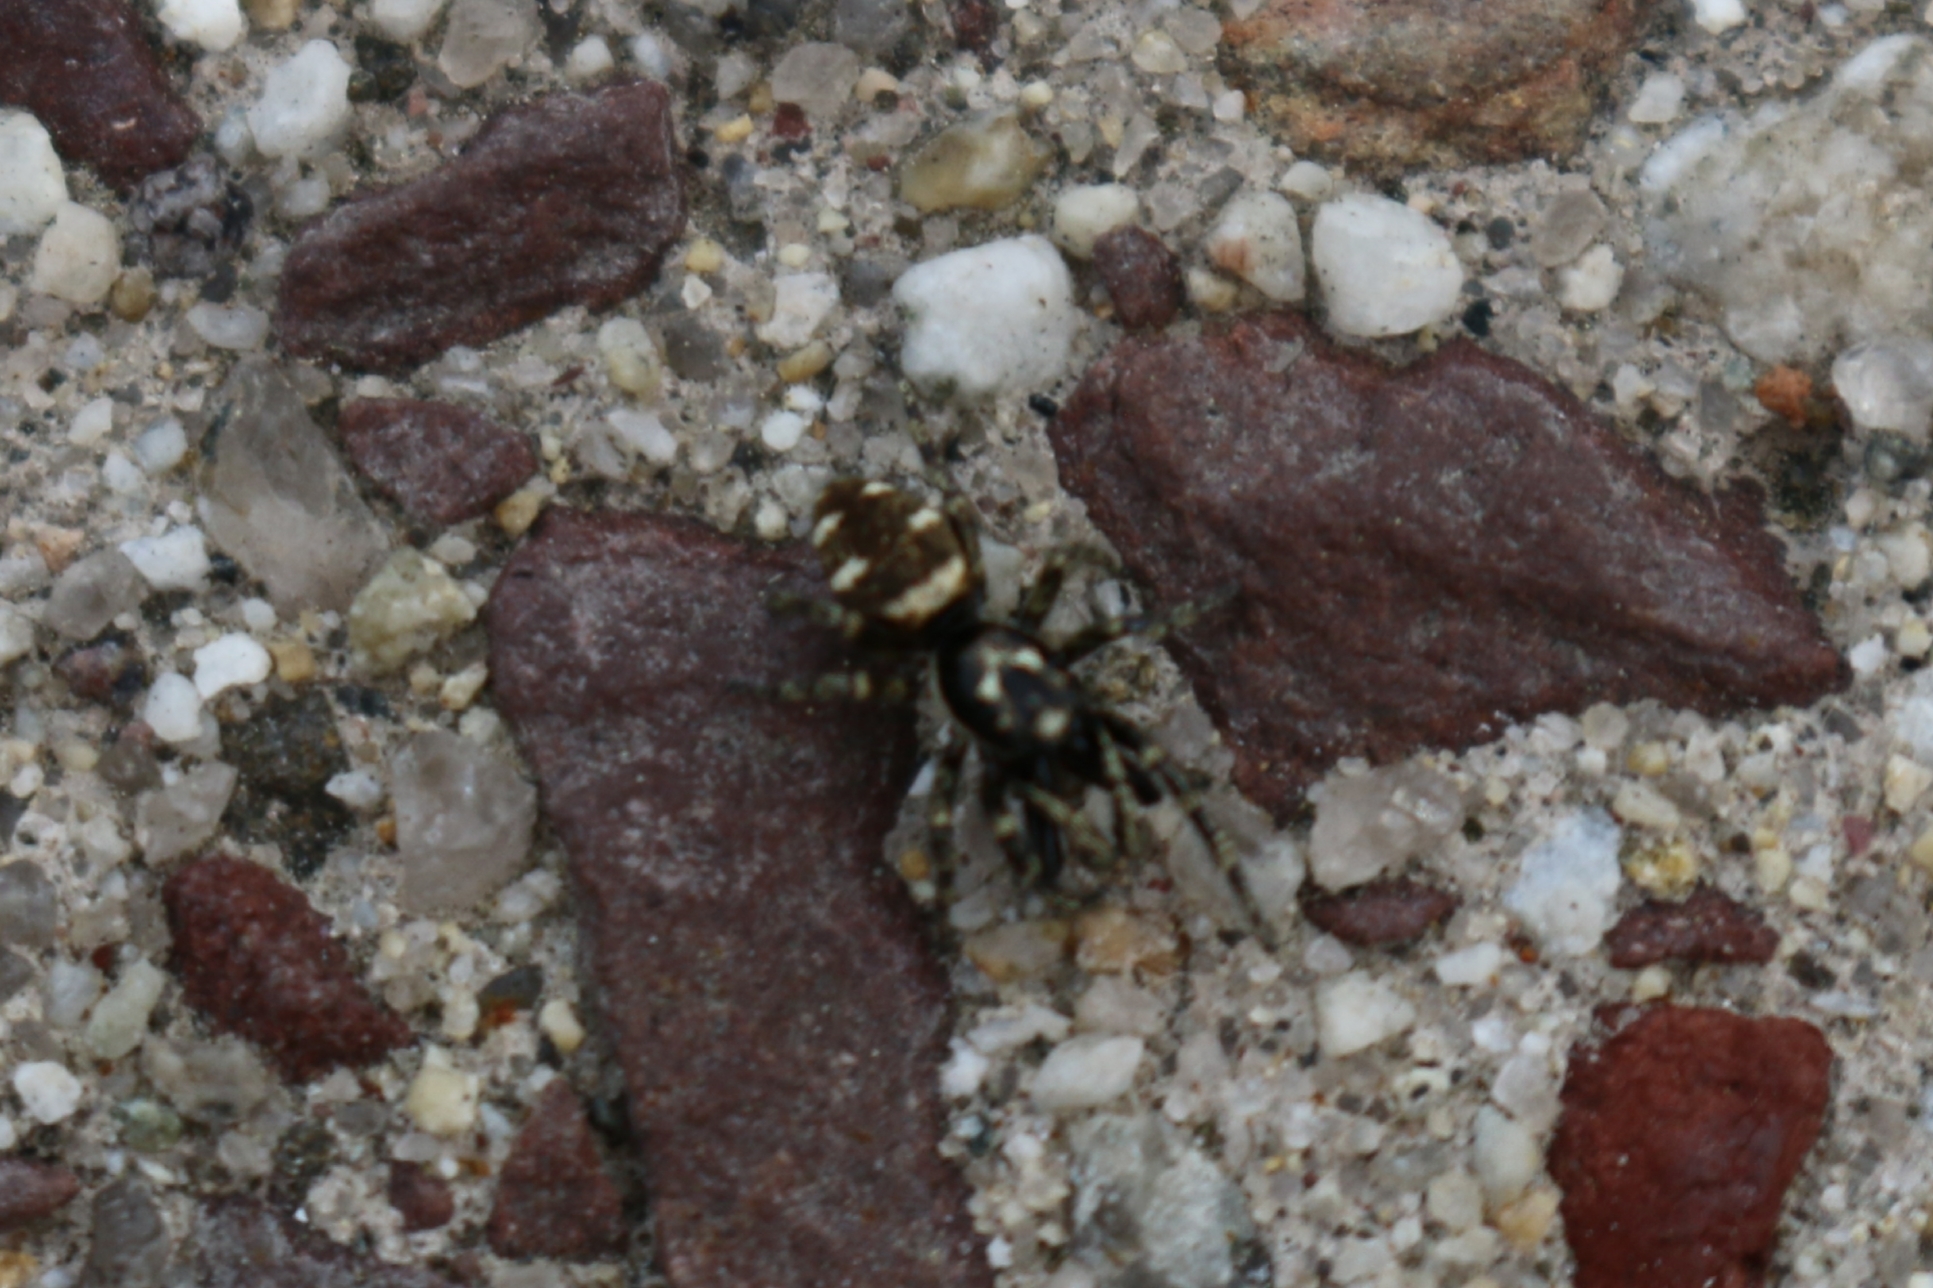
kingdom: Animalia
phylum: Arthropoda
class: Arachnida
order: Araneae
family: Salticidae
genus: Salticus
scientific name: Salticus scenicus
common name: Zebra jumper
